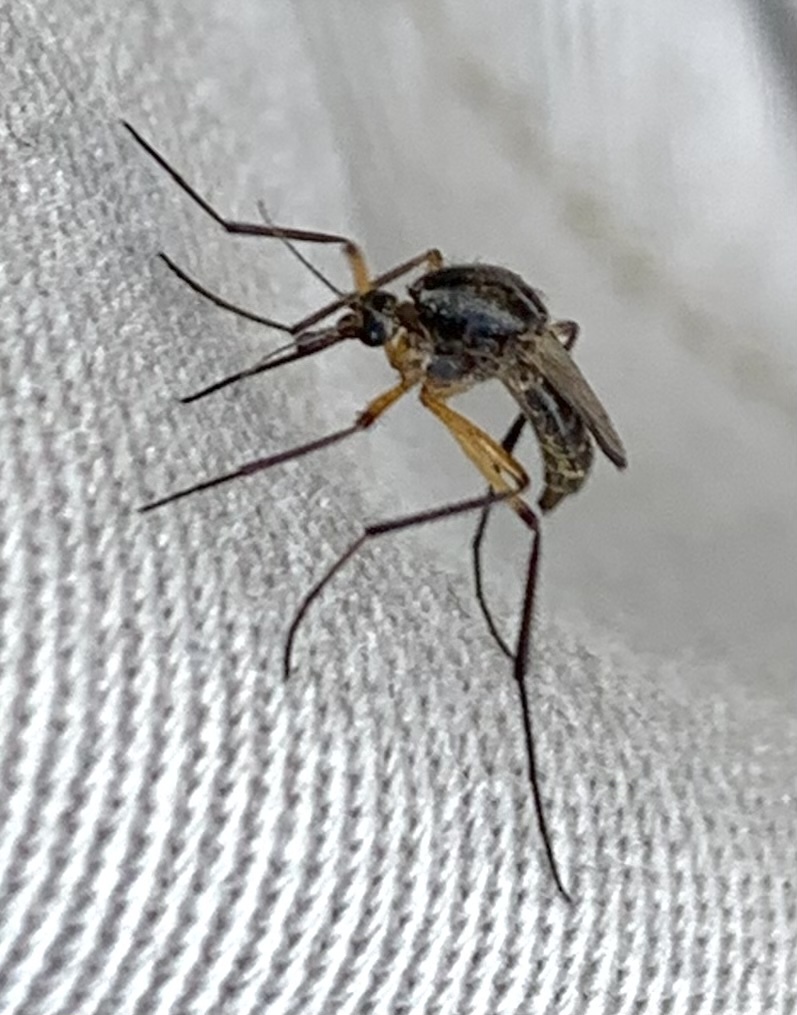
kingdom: Animalia
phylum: Arthropoda
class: Insecta
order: Diptera
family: Culicidae
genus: Psorophora
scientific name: Psorophora cyanescens
